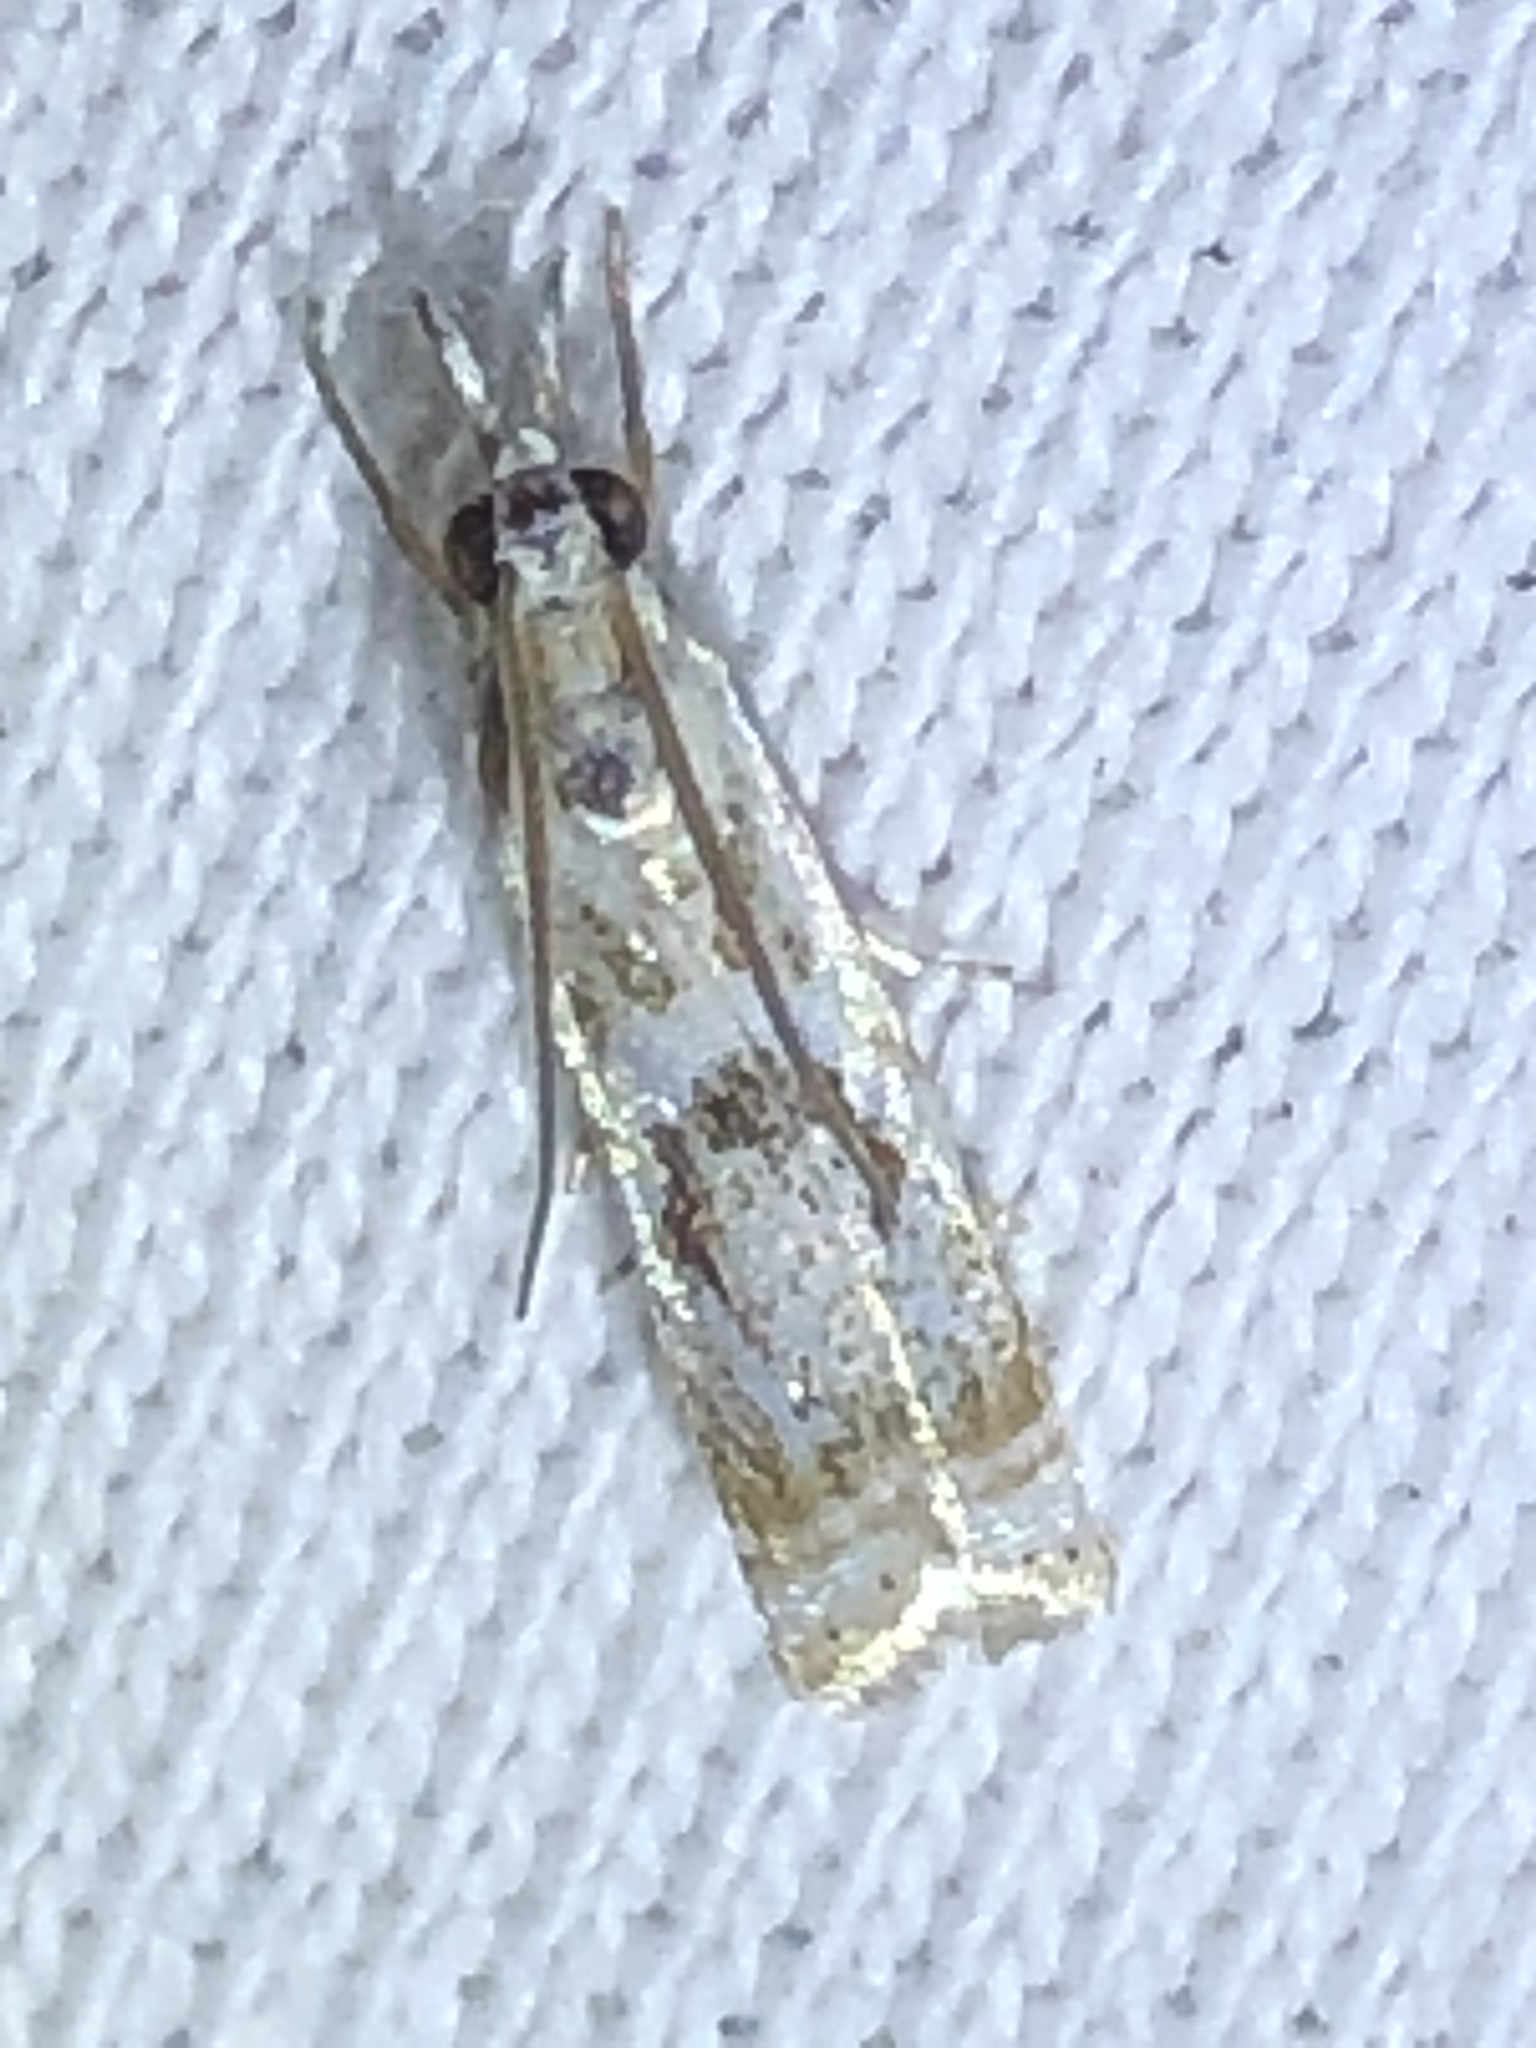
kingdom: Animalia
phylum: Arthropoda
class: Insecta
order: Lepidoptera
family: Crambidae
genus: Microcrambus
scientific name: Microcrambus elegans
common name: Elegant grass-veneer
